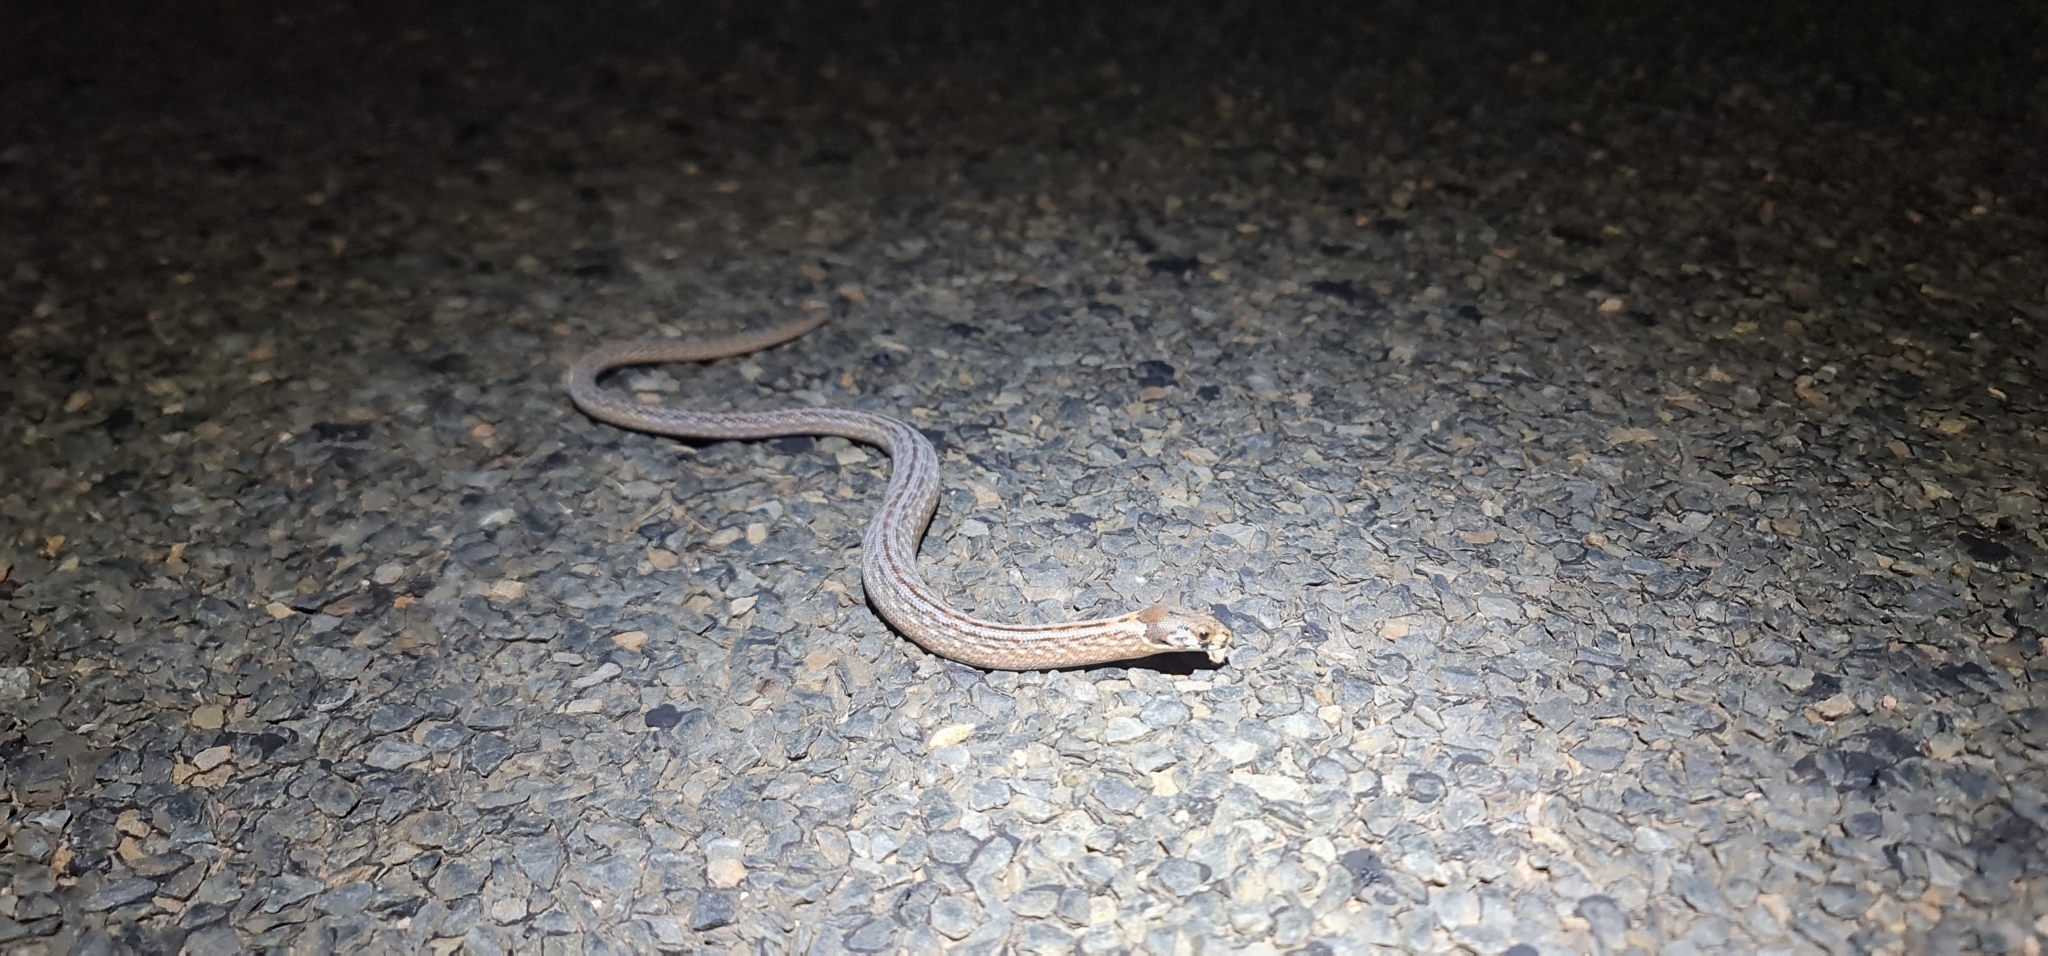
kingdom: Animalia
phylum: Chordata
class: Squamata
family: Pygopodidae
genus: Pygopus
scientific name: Pygopus schraderi
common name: Eastern scaly-foot
